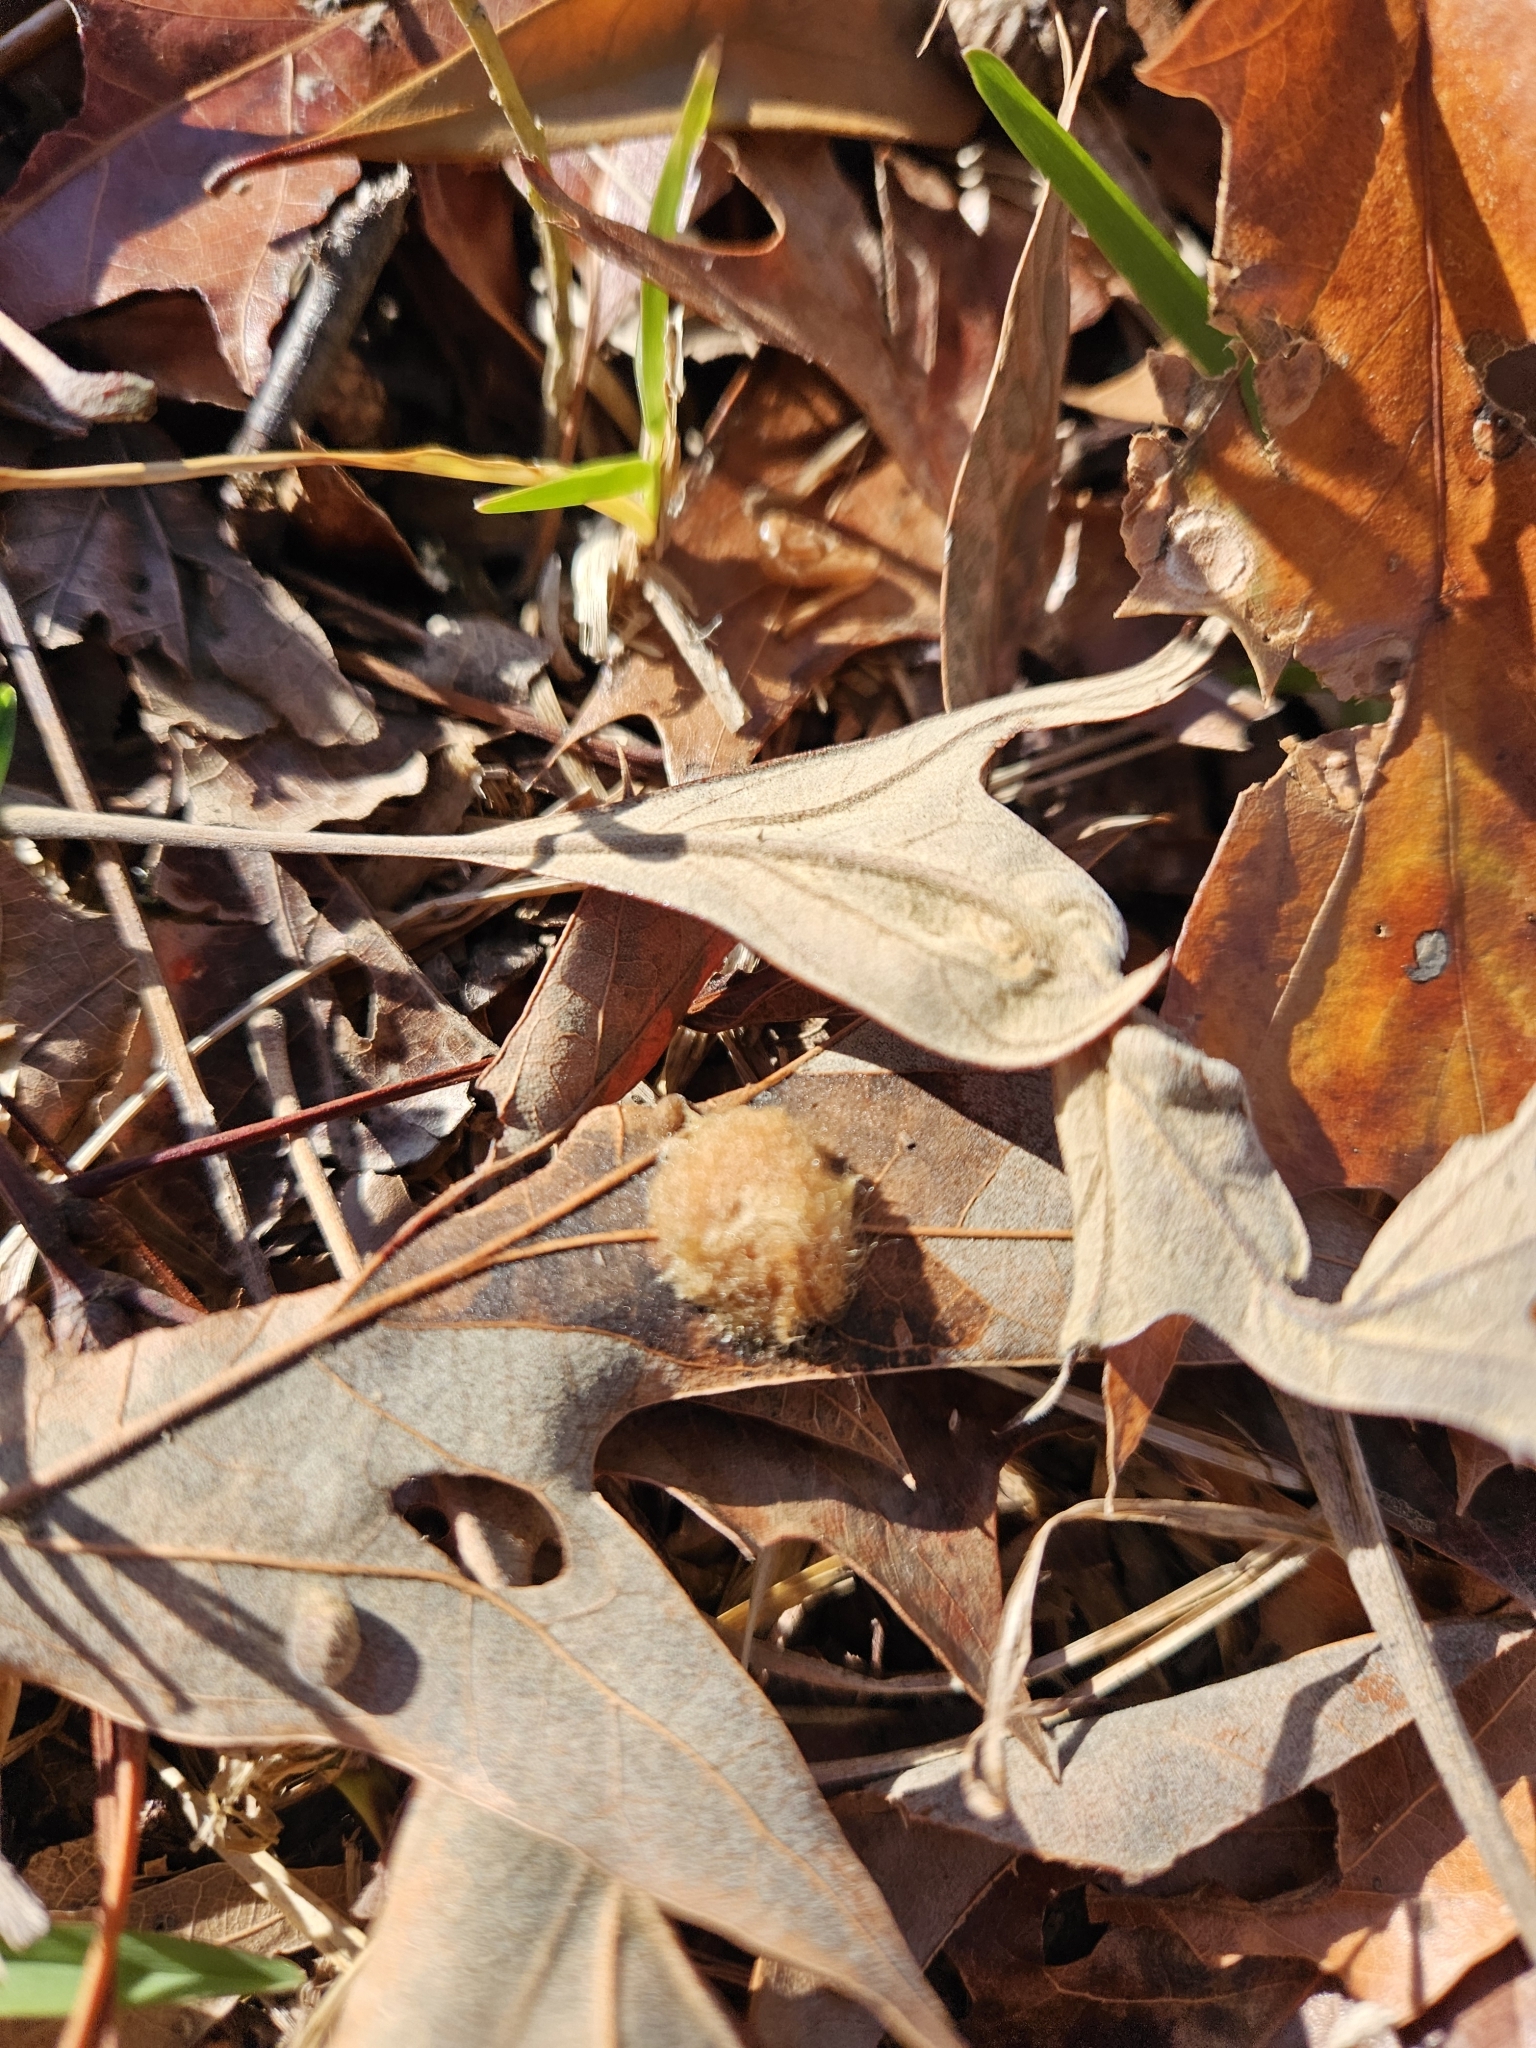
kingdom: Animalia
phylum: Arthropoda
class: Insecta
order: Hymenoptera
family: Cynipidae
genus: Callirhytis
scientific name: Callirhytis
